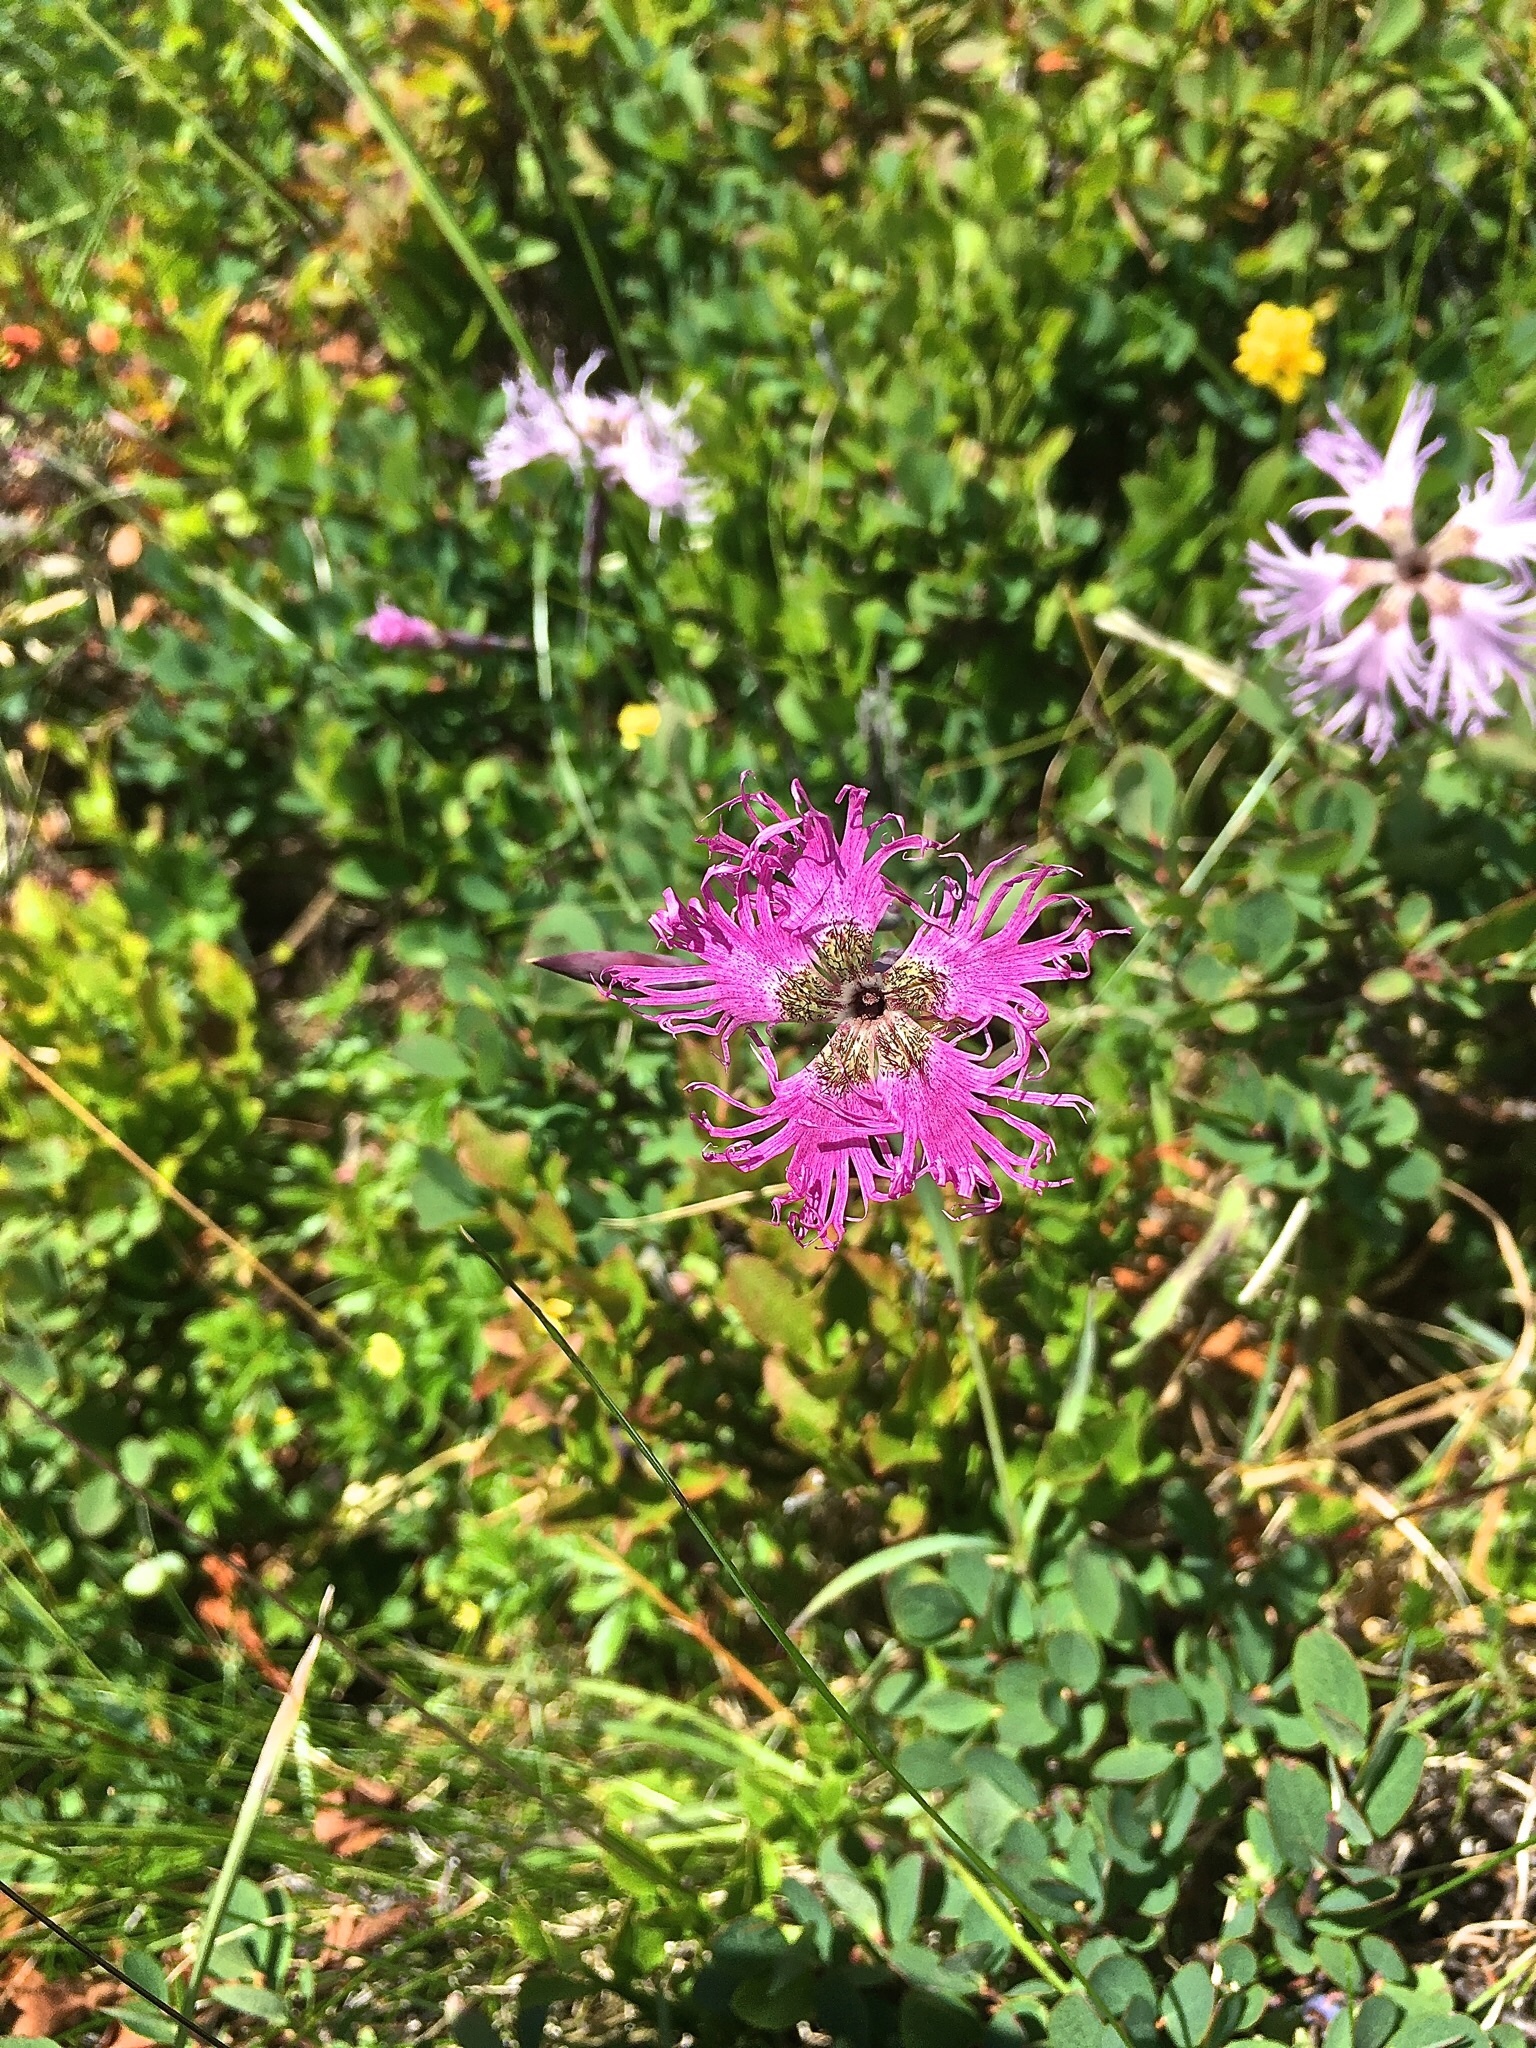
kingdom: Plantae
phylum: Tracheophyta
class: Magnoliopsida
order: Caryophyllales
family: Caryophyllaceae
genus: Dianthus
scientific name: Dianthus superbus
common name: Fringed pink
